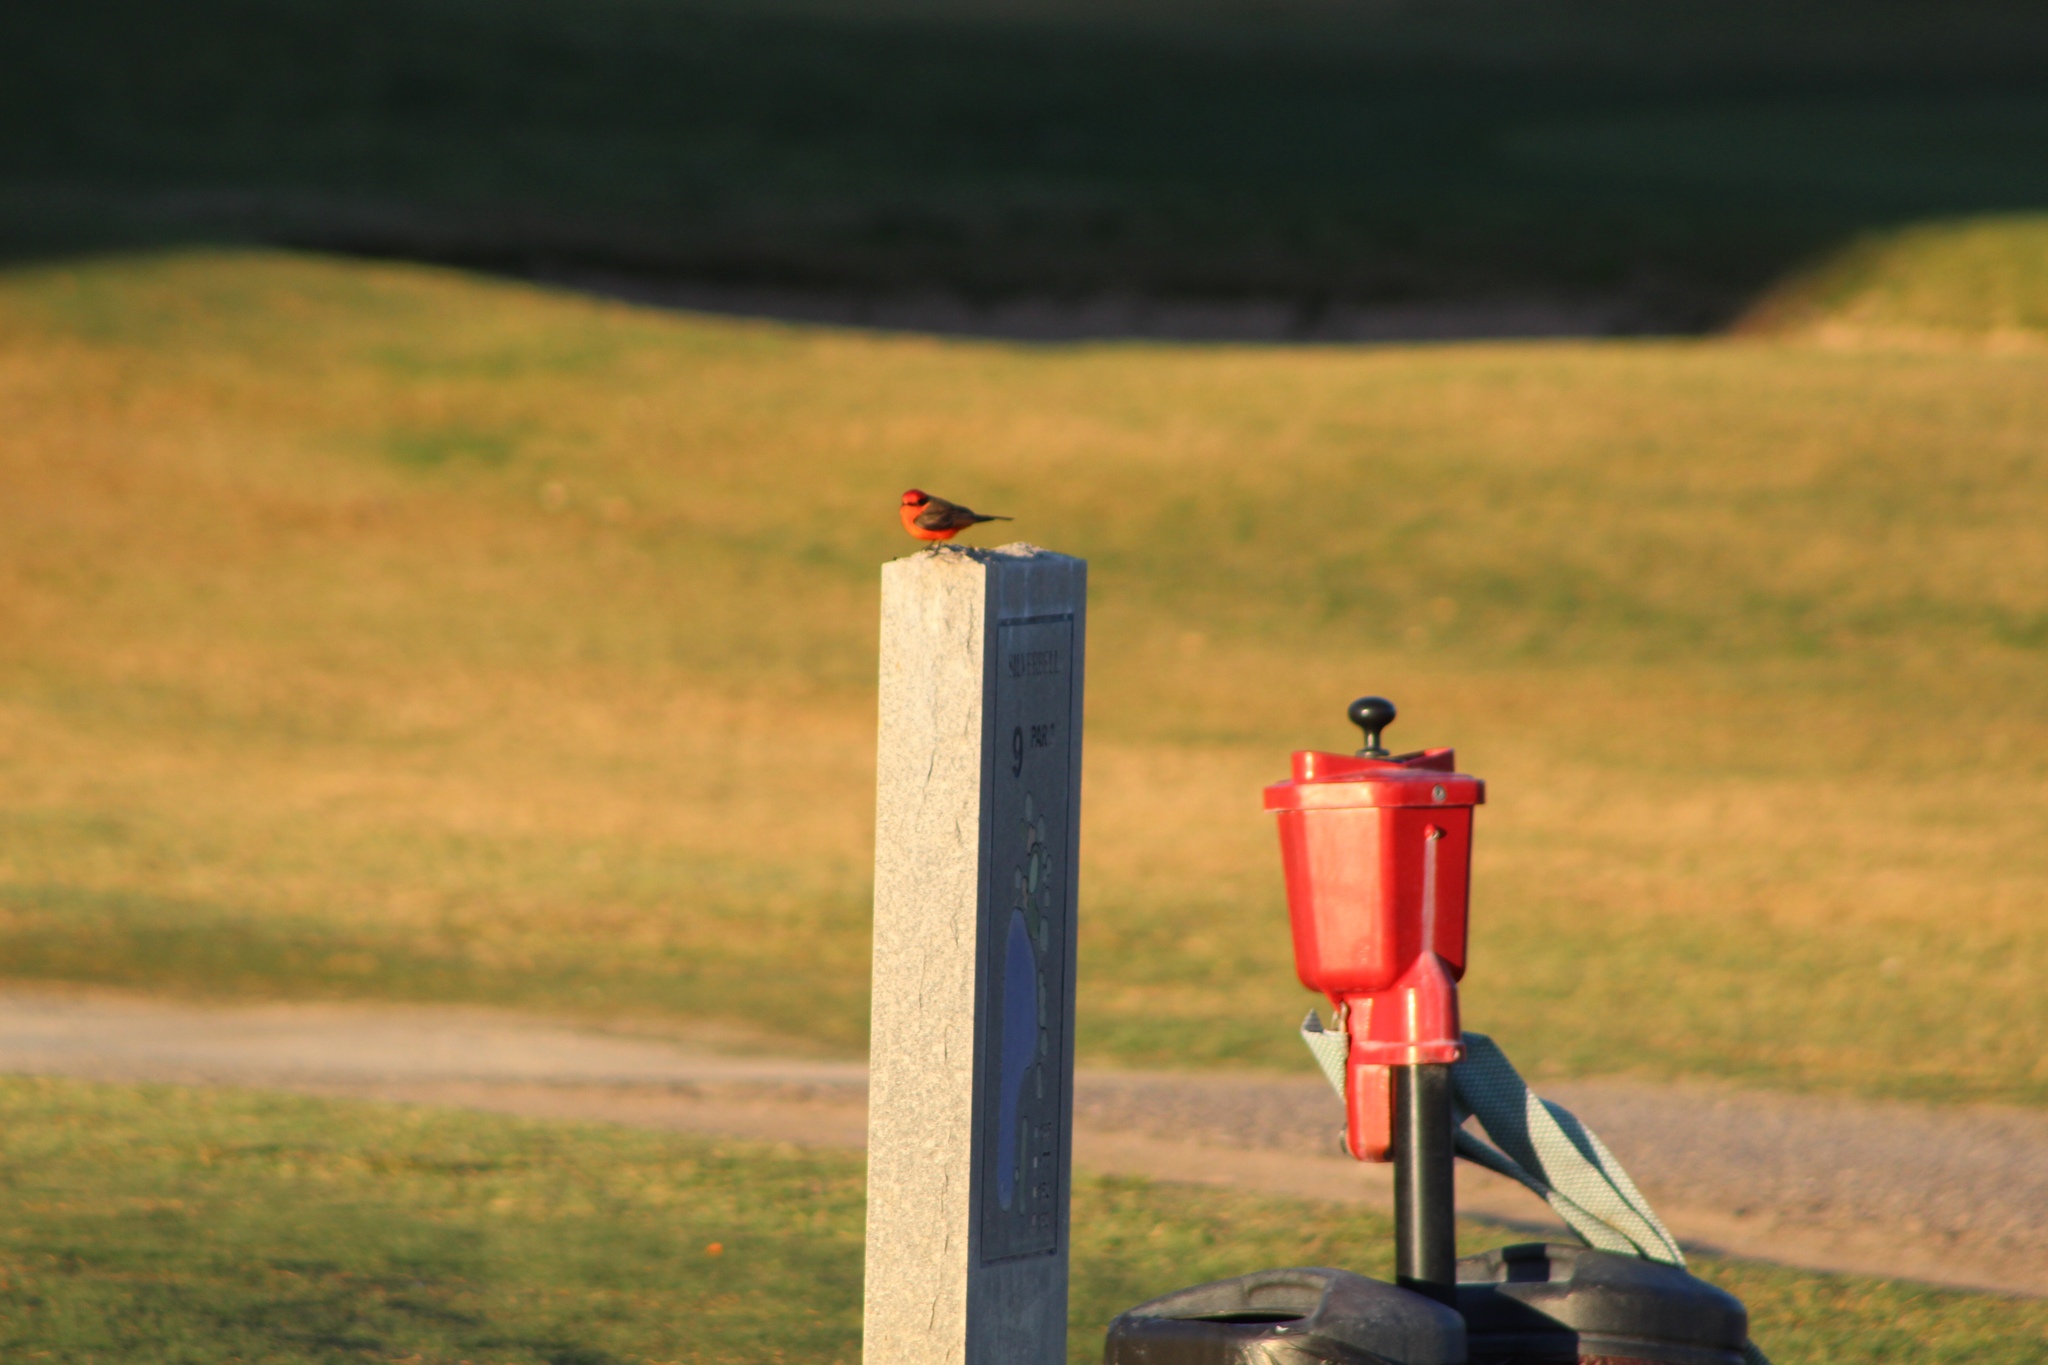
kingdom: Animalia
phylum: Chordata
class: Aves
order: Passeriformes
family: Tyrannidae
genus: Pyrocephalus
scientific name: Pyrocephalus rubinus
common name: Vermilion flycatcher
